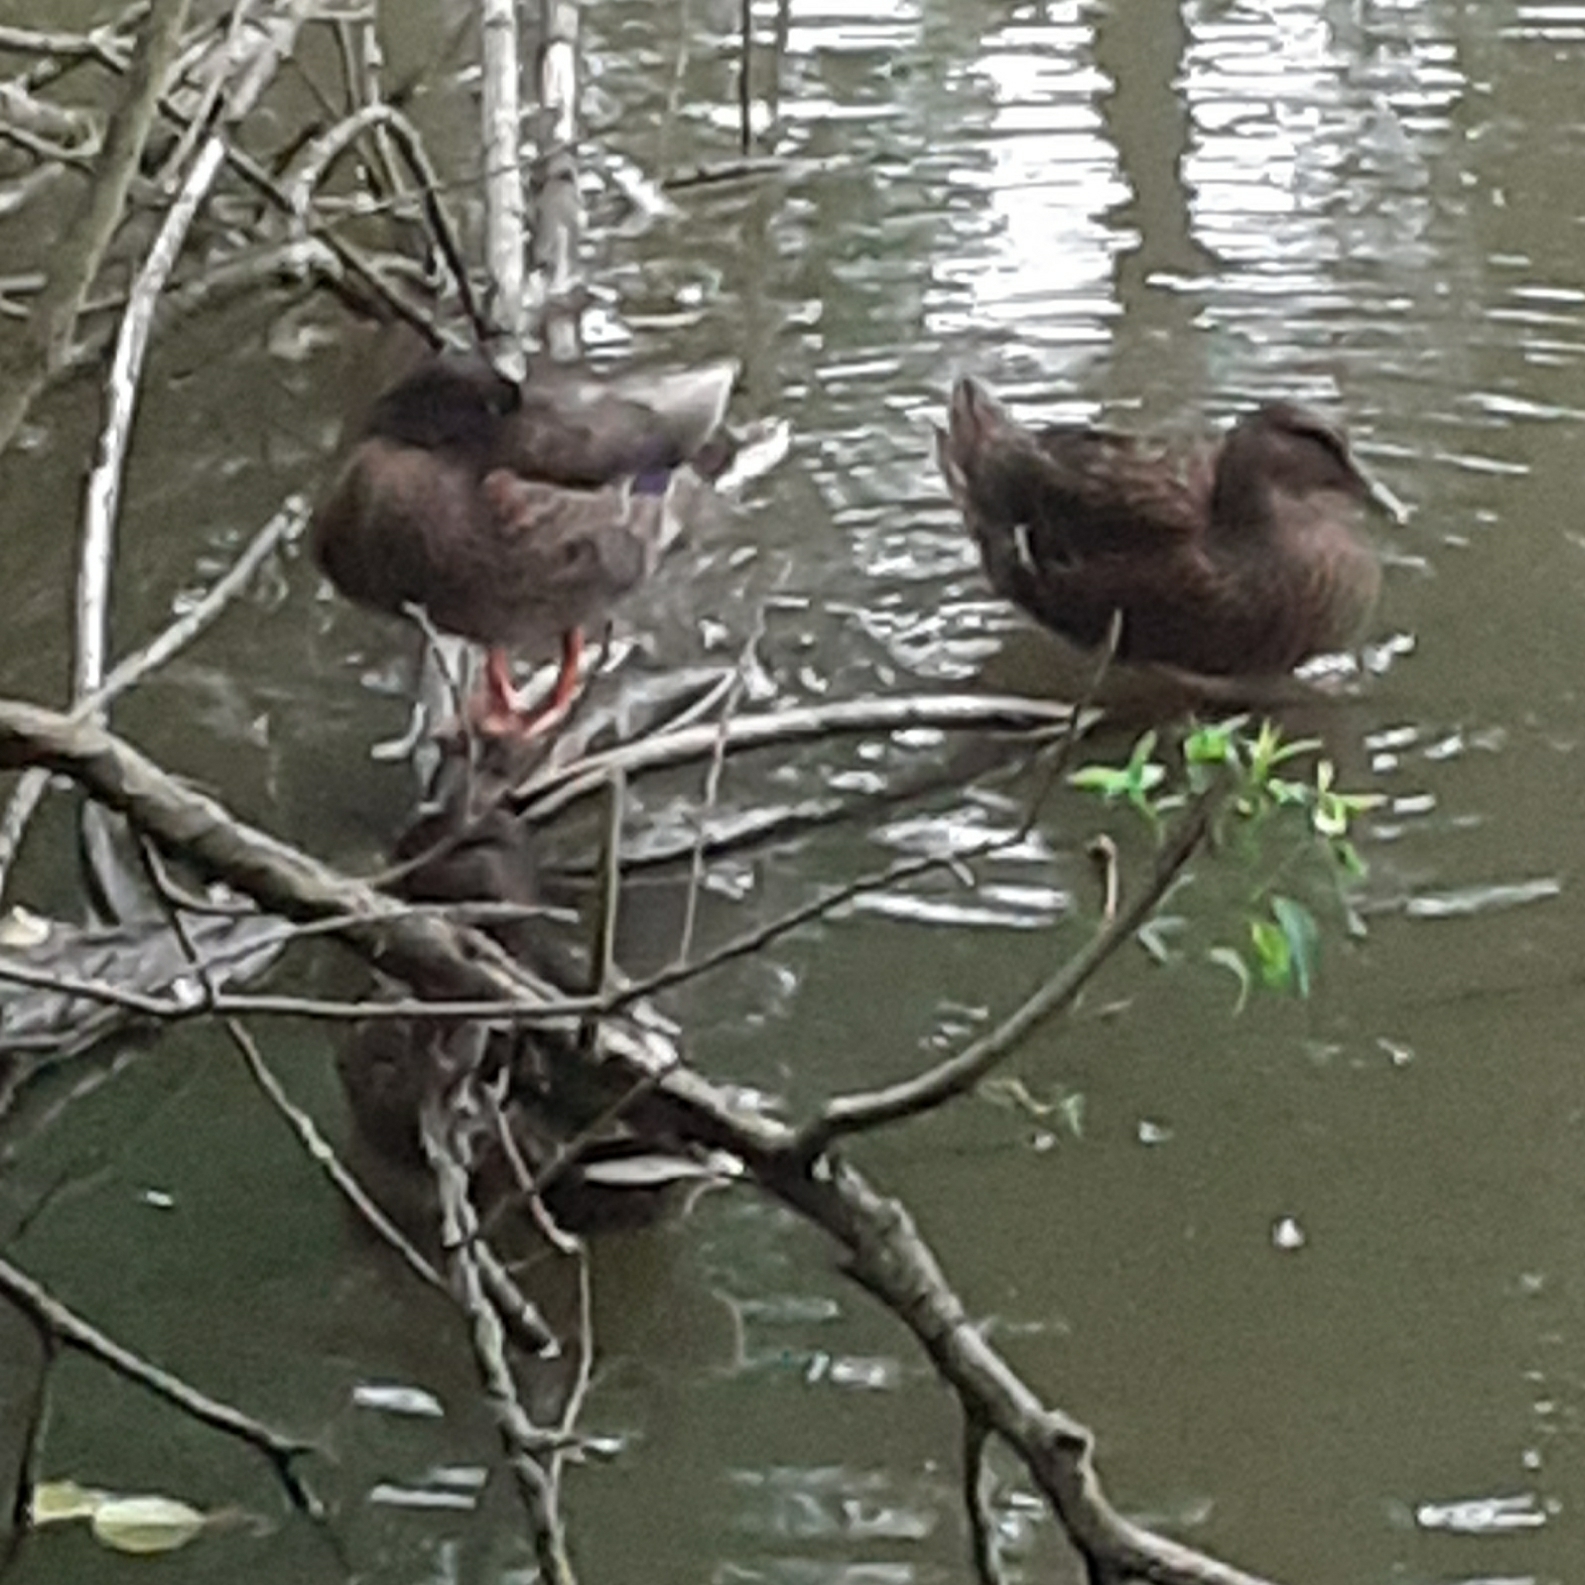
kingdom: Animalia
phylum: Chordata
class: Aves
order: Anseriformes
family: Anatidae
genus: Anas
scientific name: Anas platyrhynchos
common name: Mallard
